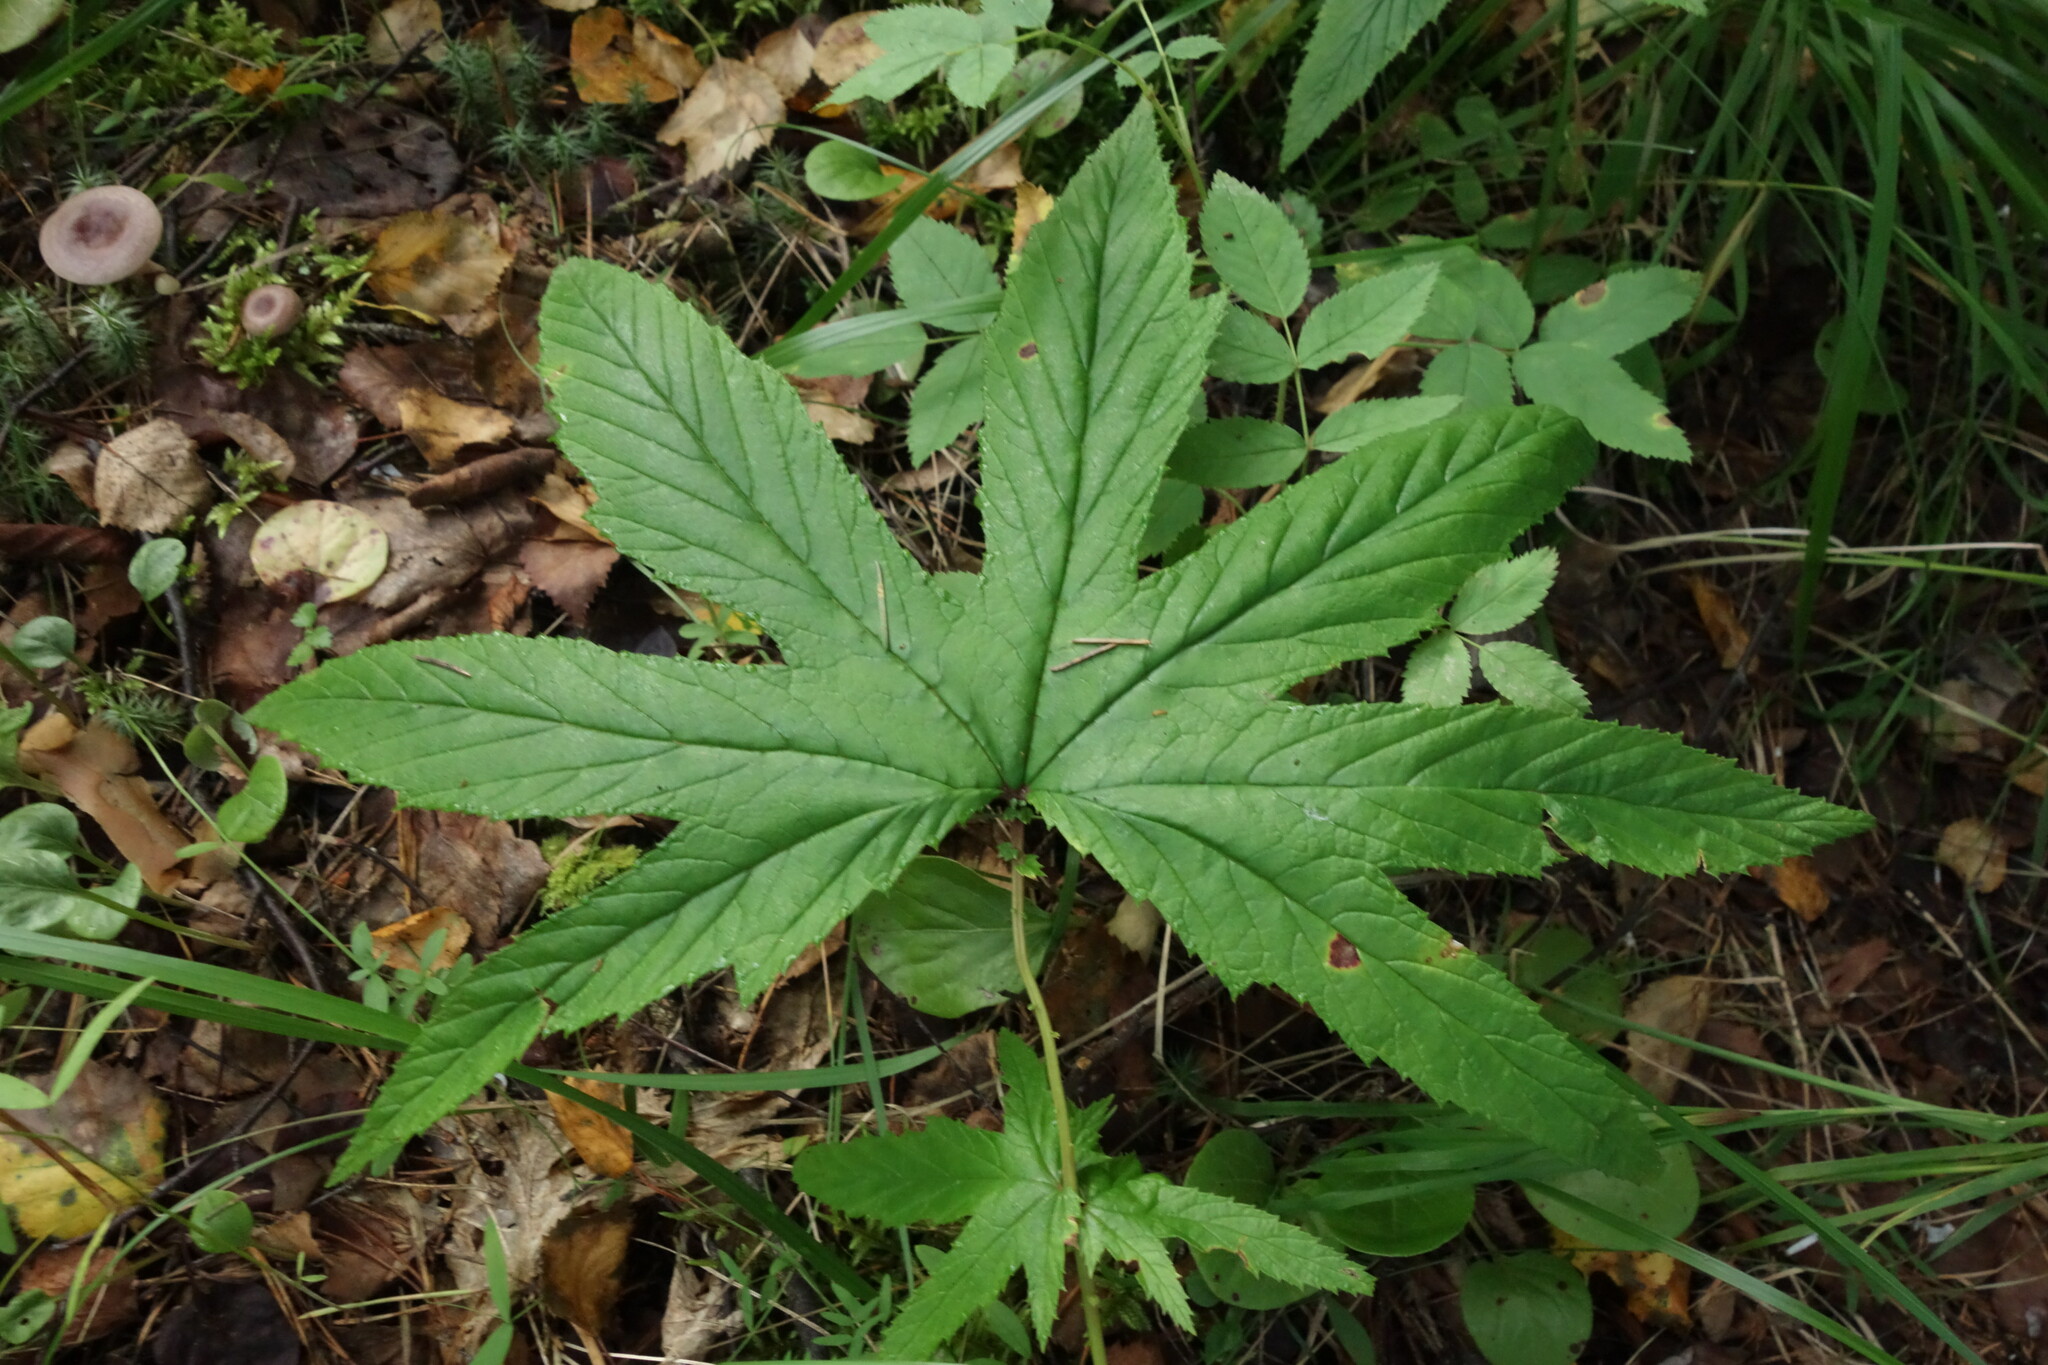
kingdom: Plantae
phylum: Tracheophyta
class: Magnoliopsida
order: Rosales
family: Rosaceae
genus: Filipendula
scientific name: Filipendula digitata
